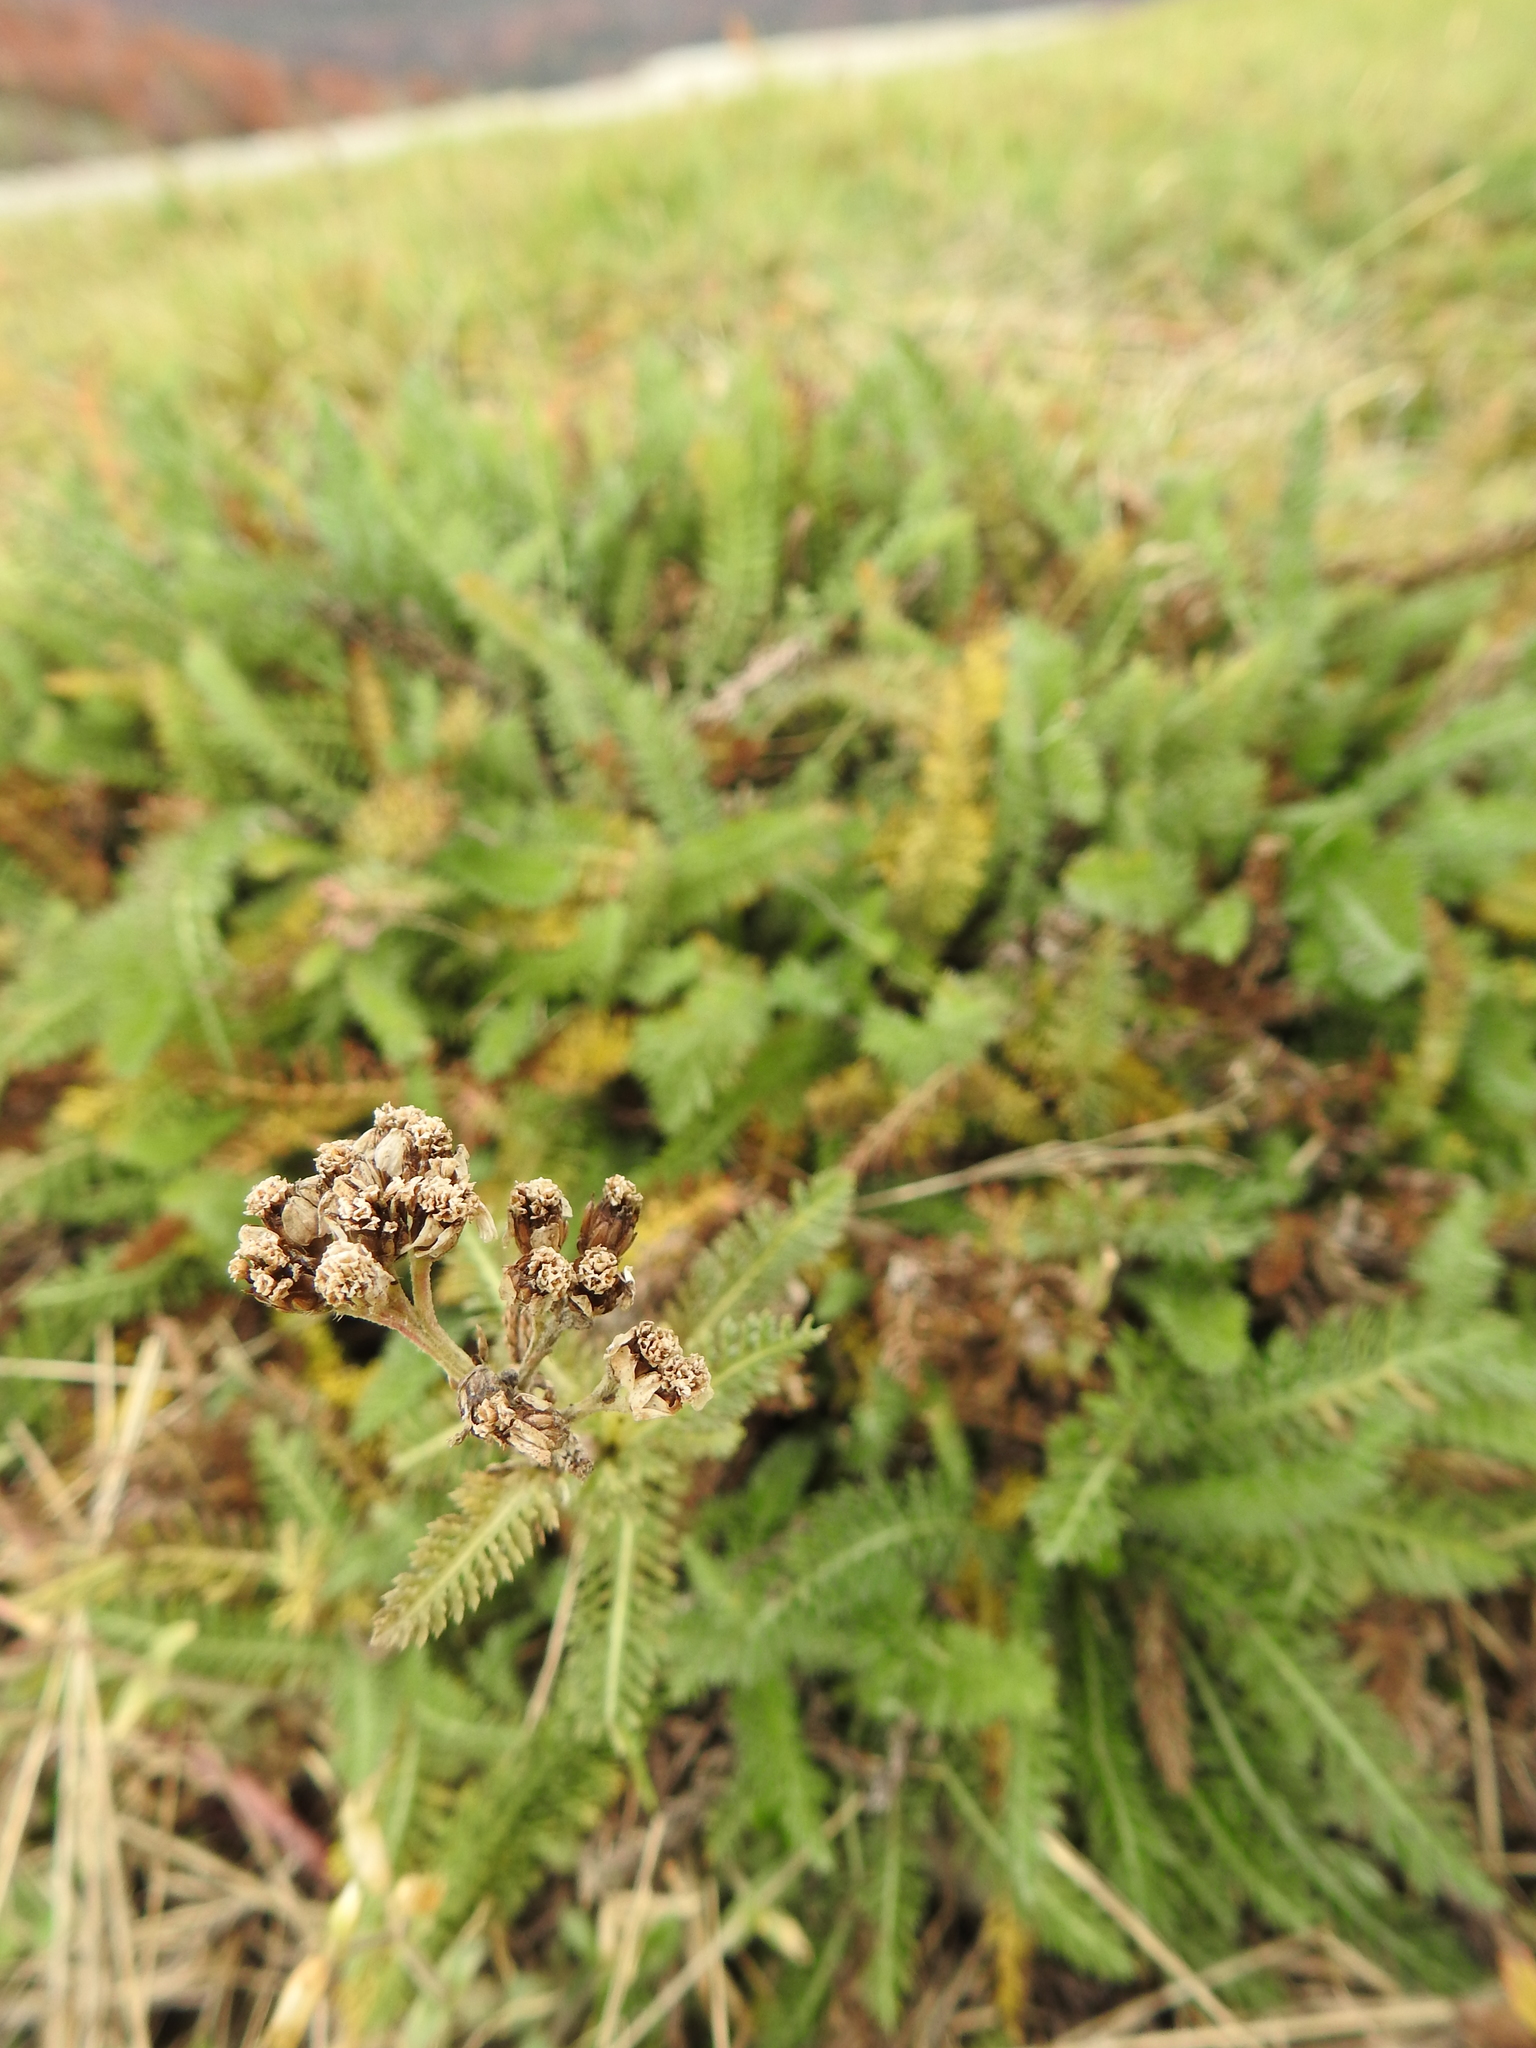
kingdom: Plantae
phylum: Tracheophyta
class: Magnoliopsida
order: Asterales
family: Asteraceae
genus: Achillea
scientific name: Achillea millefolium
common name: Yarrow
